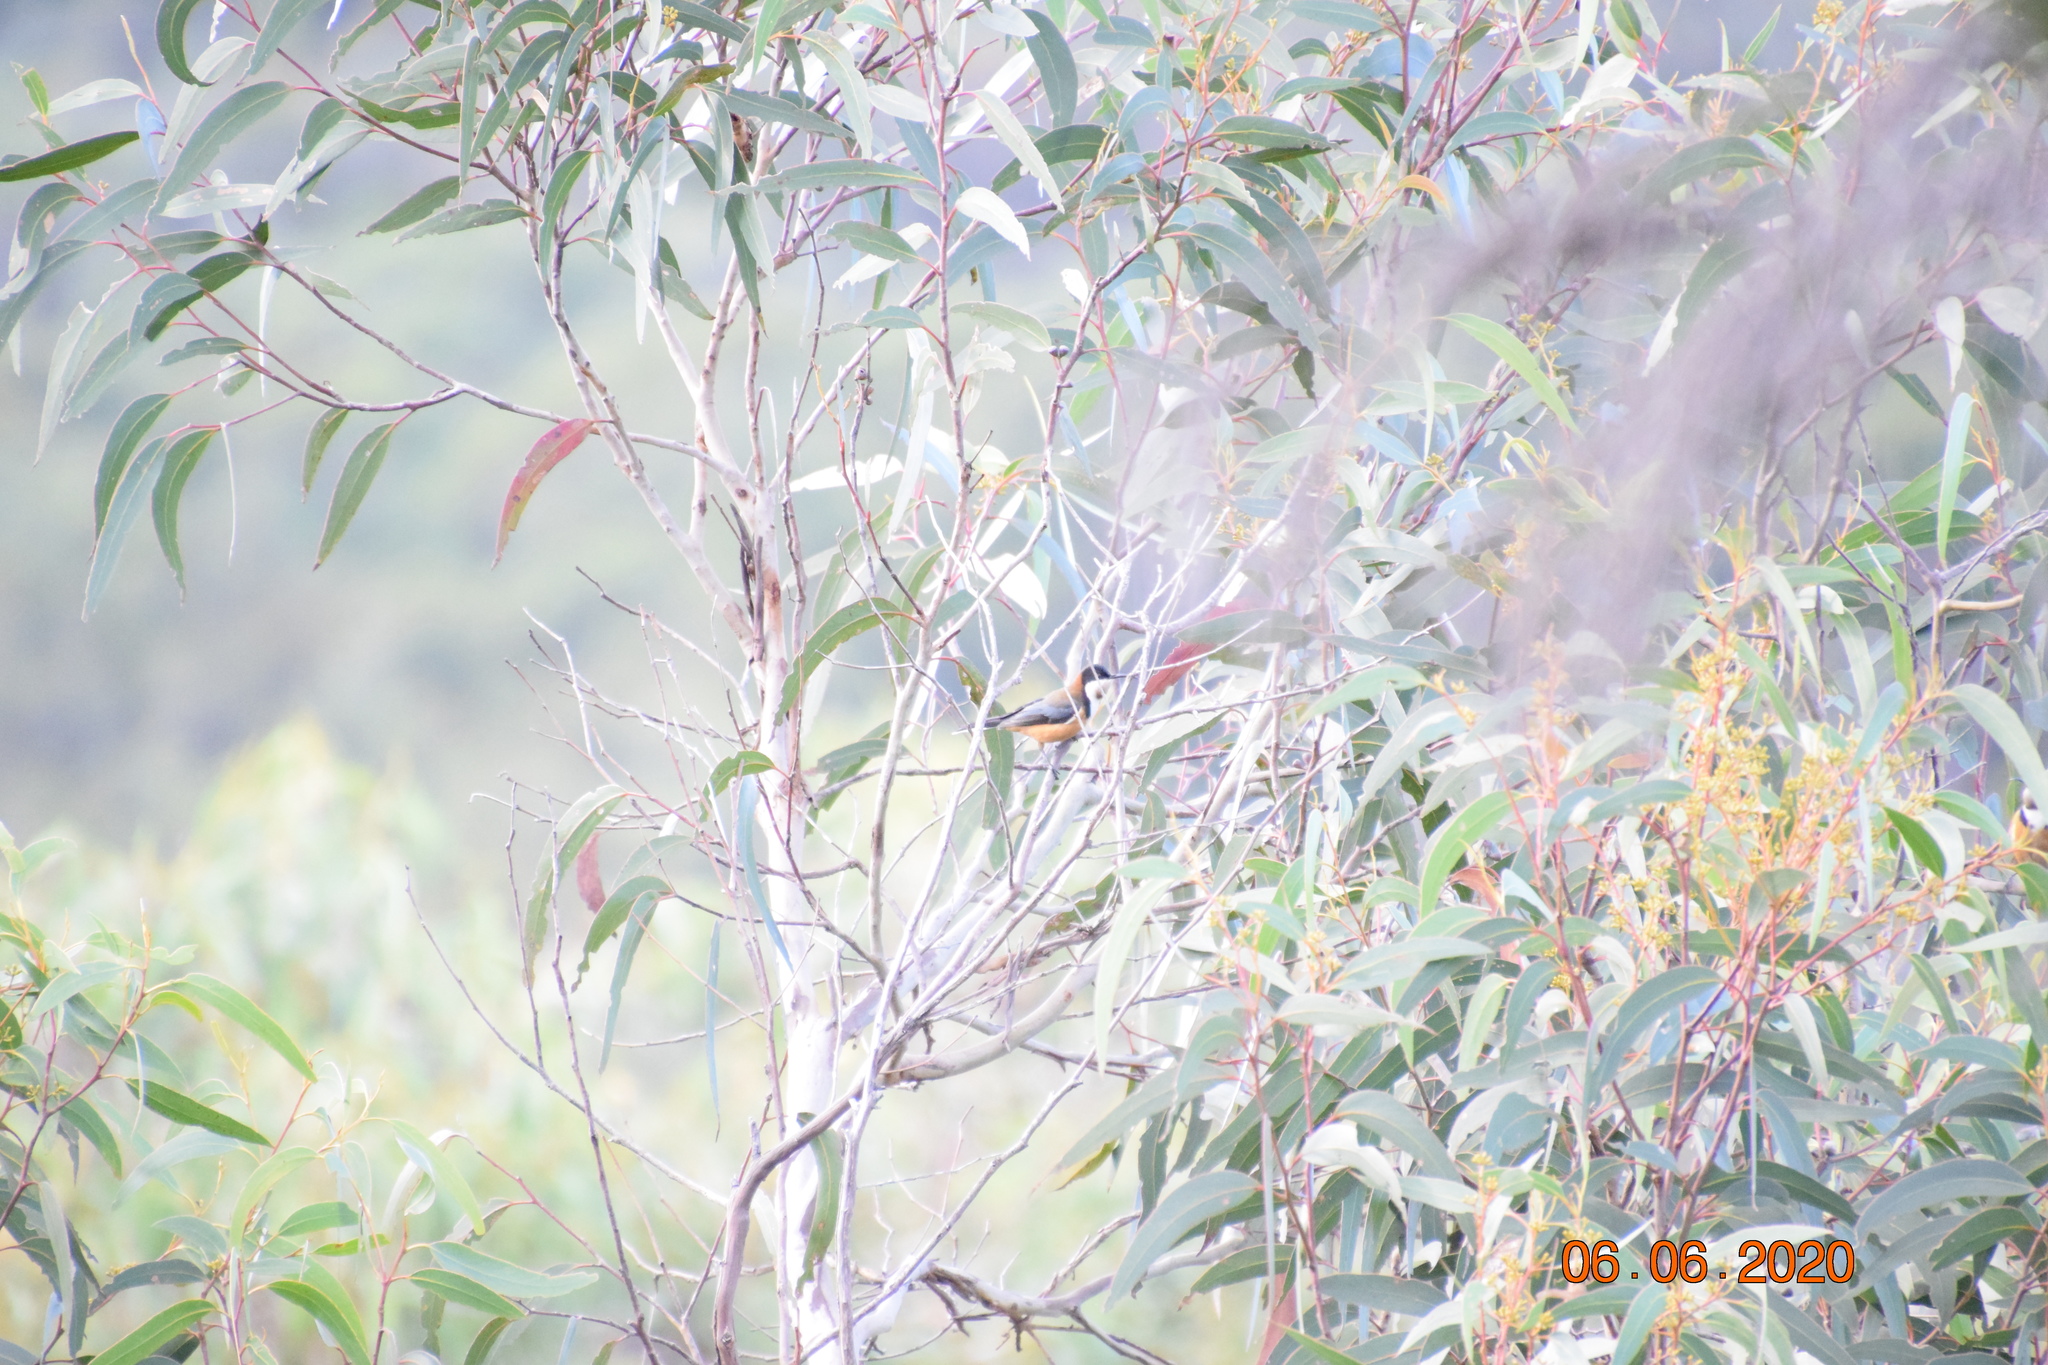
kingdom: Animalia
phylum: Chordata
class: Aves
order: Passeriformes
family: Meliphagidae
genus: Acanthorhynchus
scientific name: Acanthorhynchus tenuirostris
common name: Eastern spinebill
